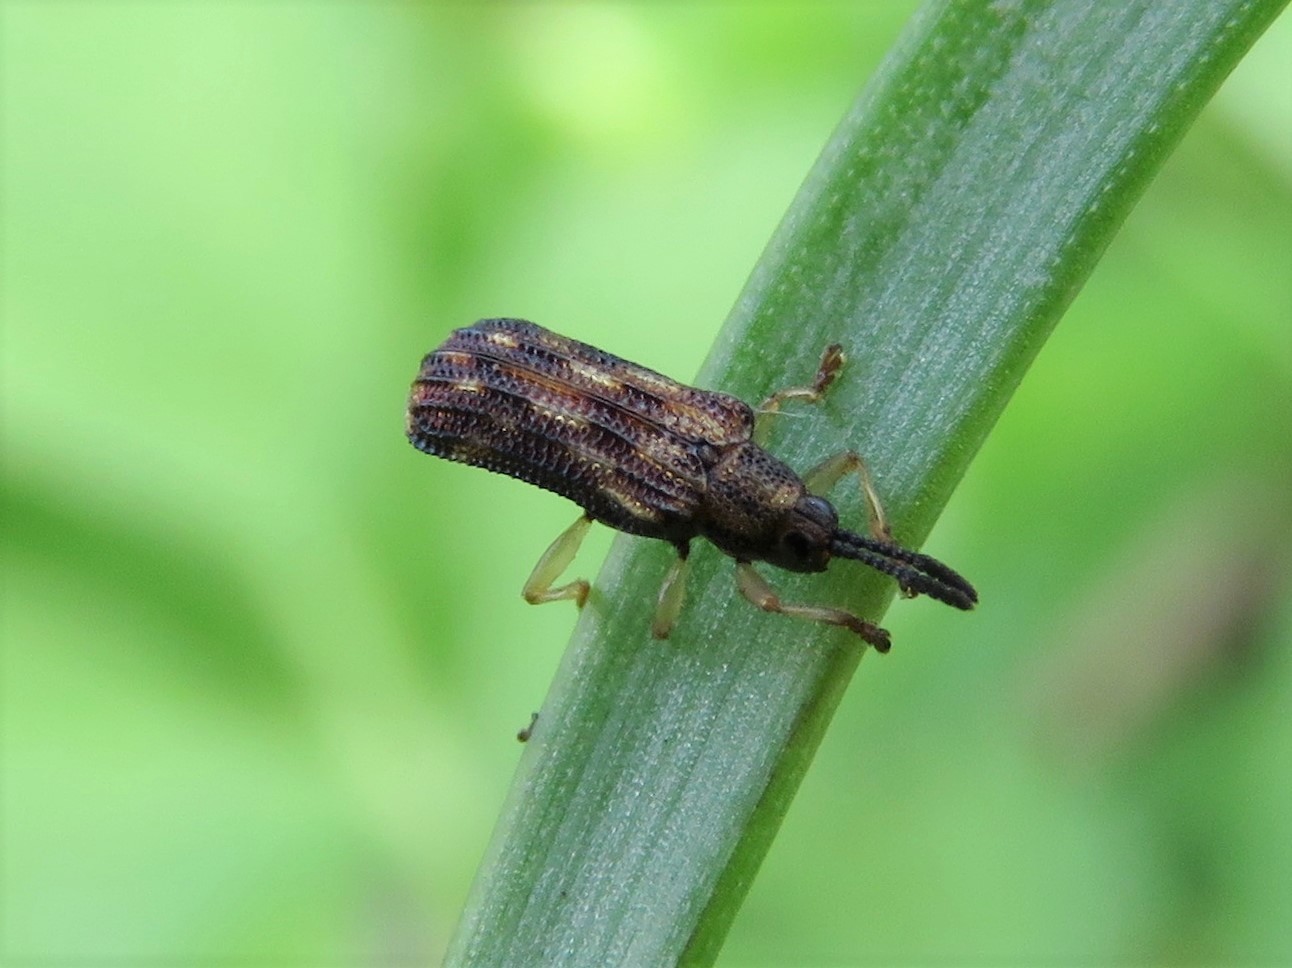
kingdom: Animalia
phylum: Arthropoda
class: Insecta
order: Coleoptera
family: Chrysomelidae
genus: Sumitrosis
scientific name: Sumitrosis inaequalis
